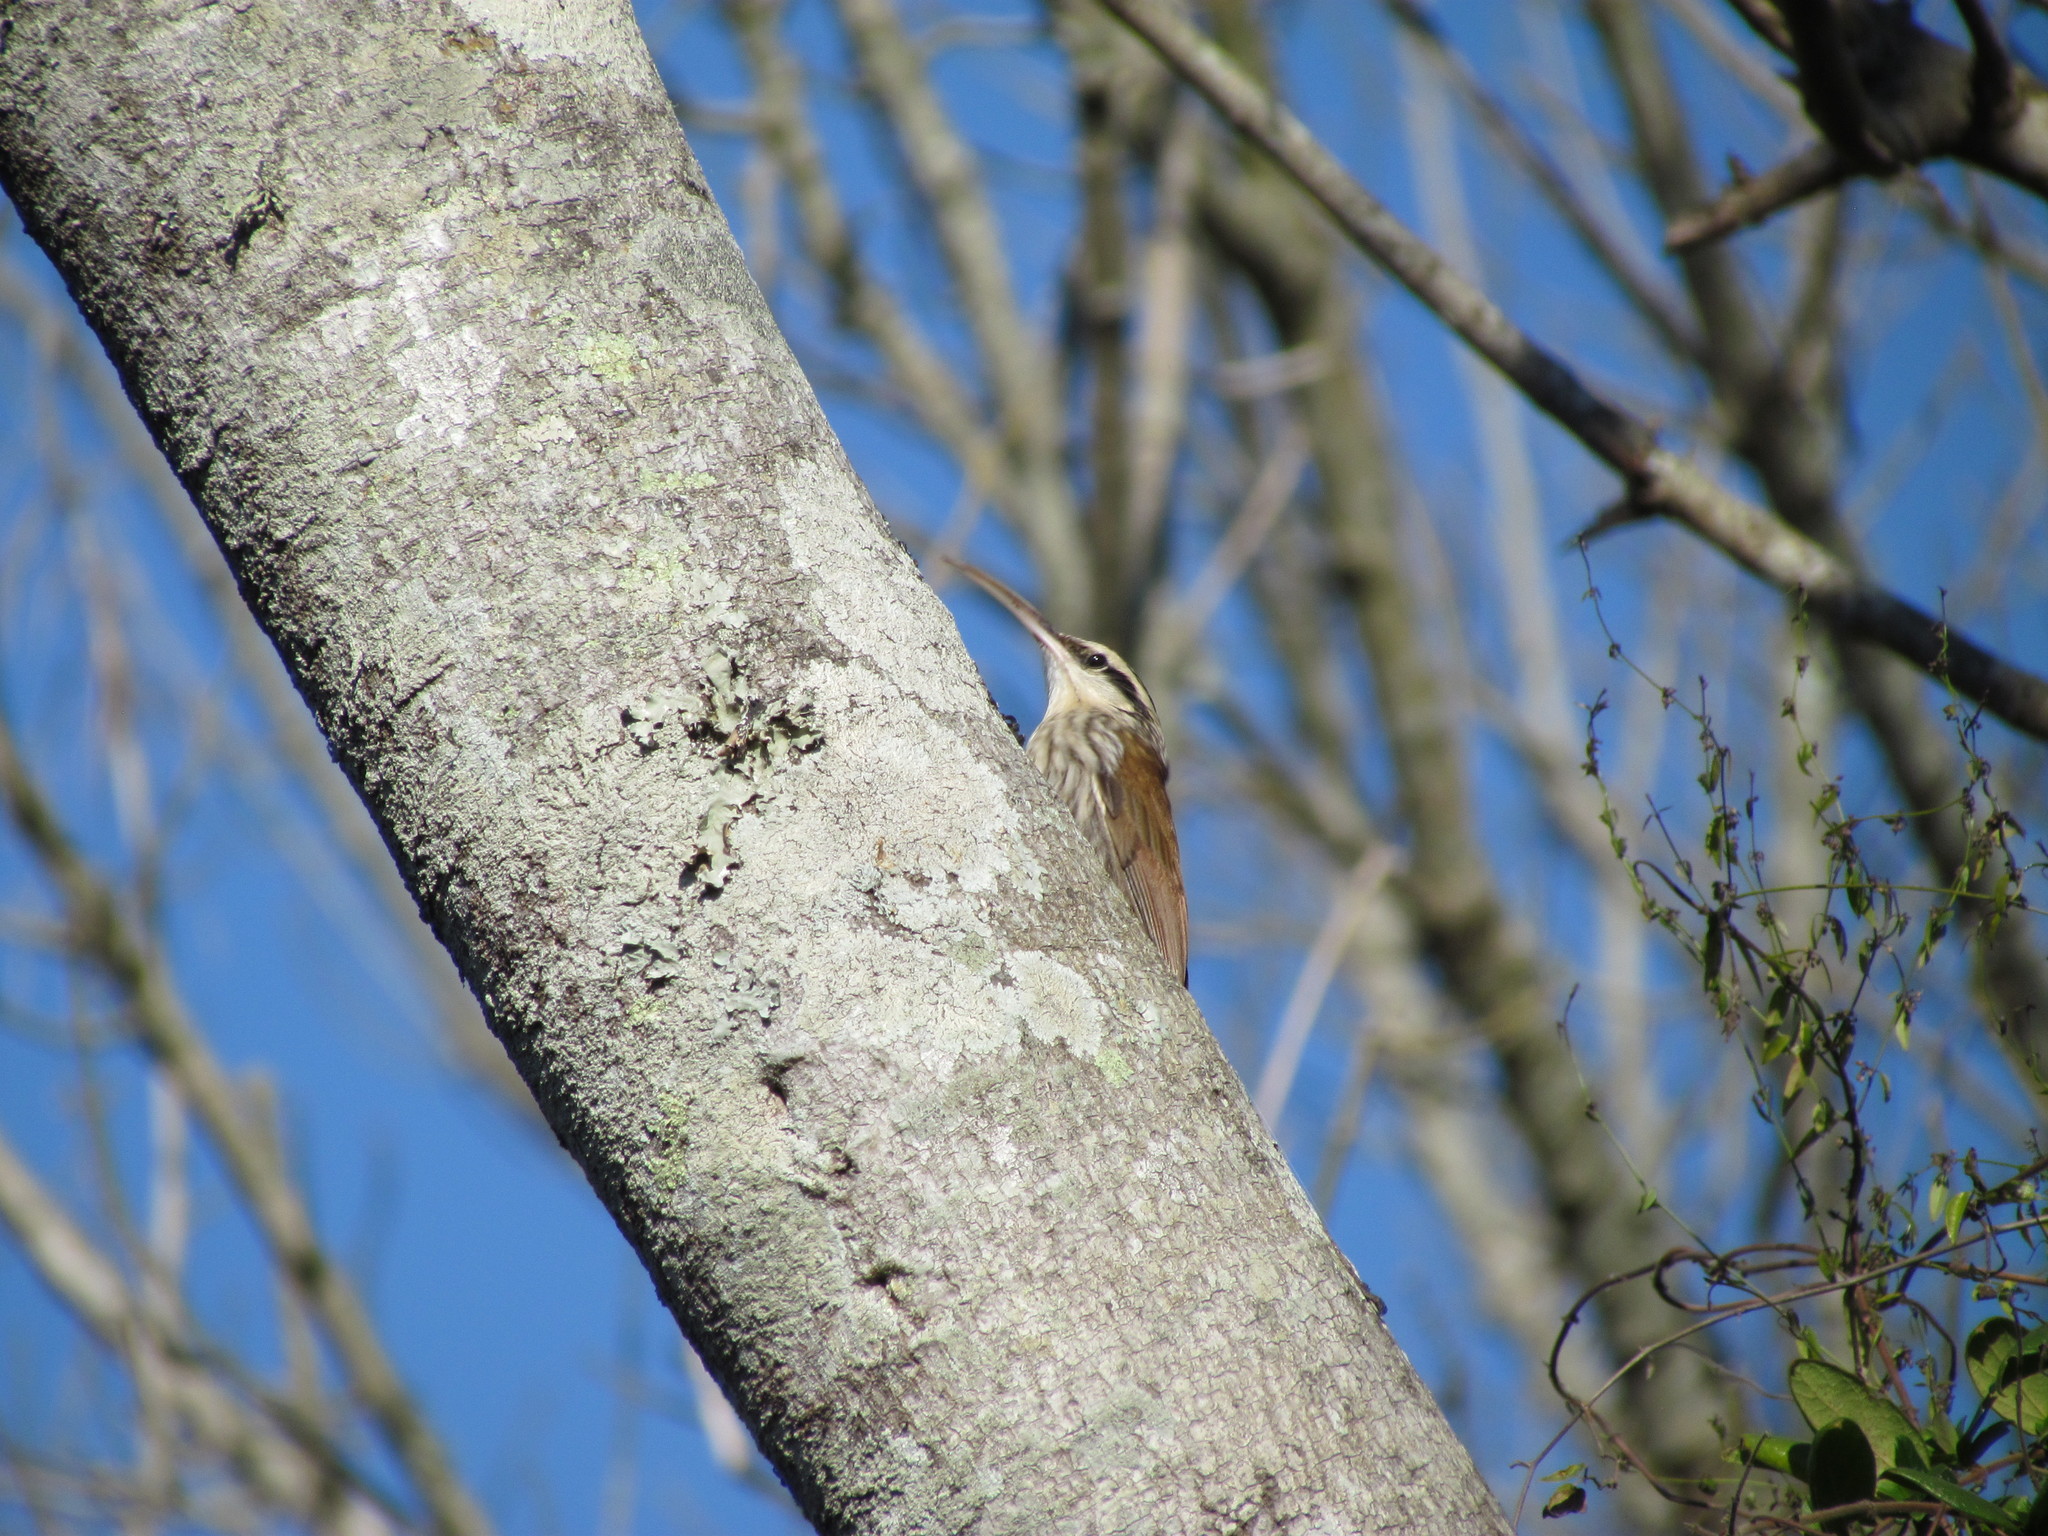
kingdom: Animalia
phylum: Chordata
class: Aves
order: Passeriformes
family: Furnariidae
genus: Lepidocolaptes
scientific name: Lepidocolaptes angustirostris
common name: Narrow-billed woodcreeper
